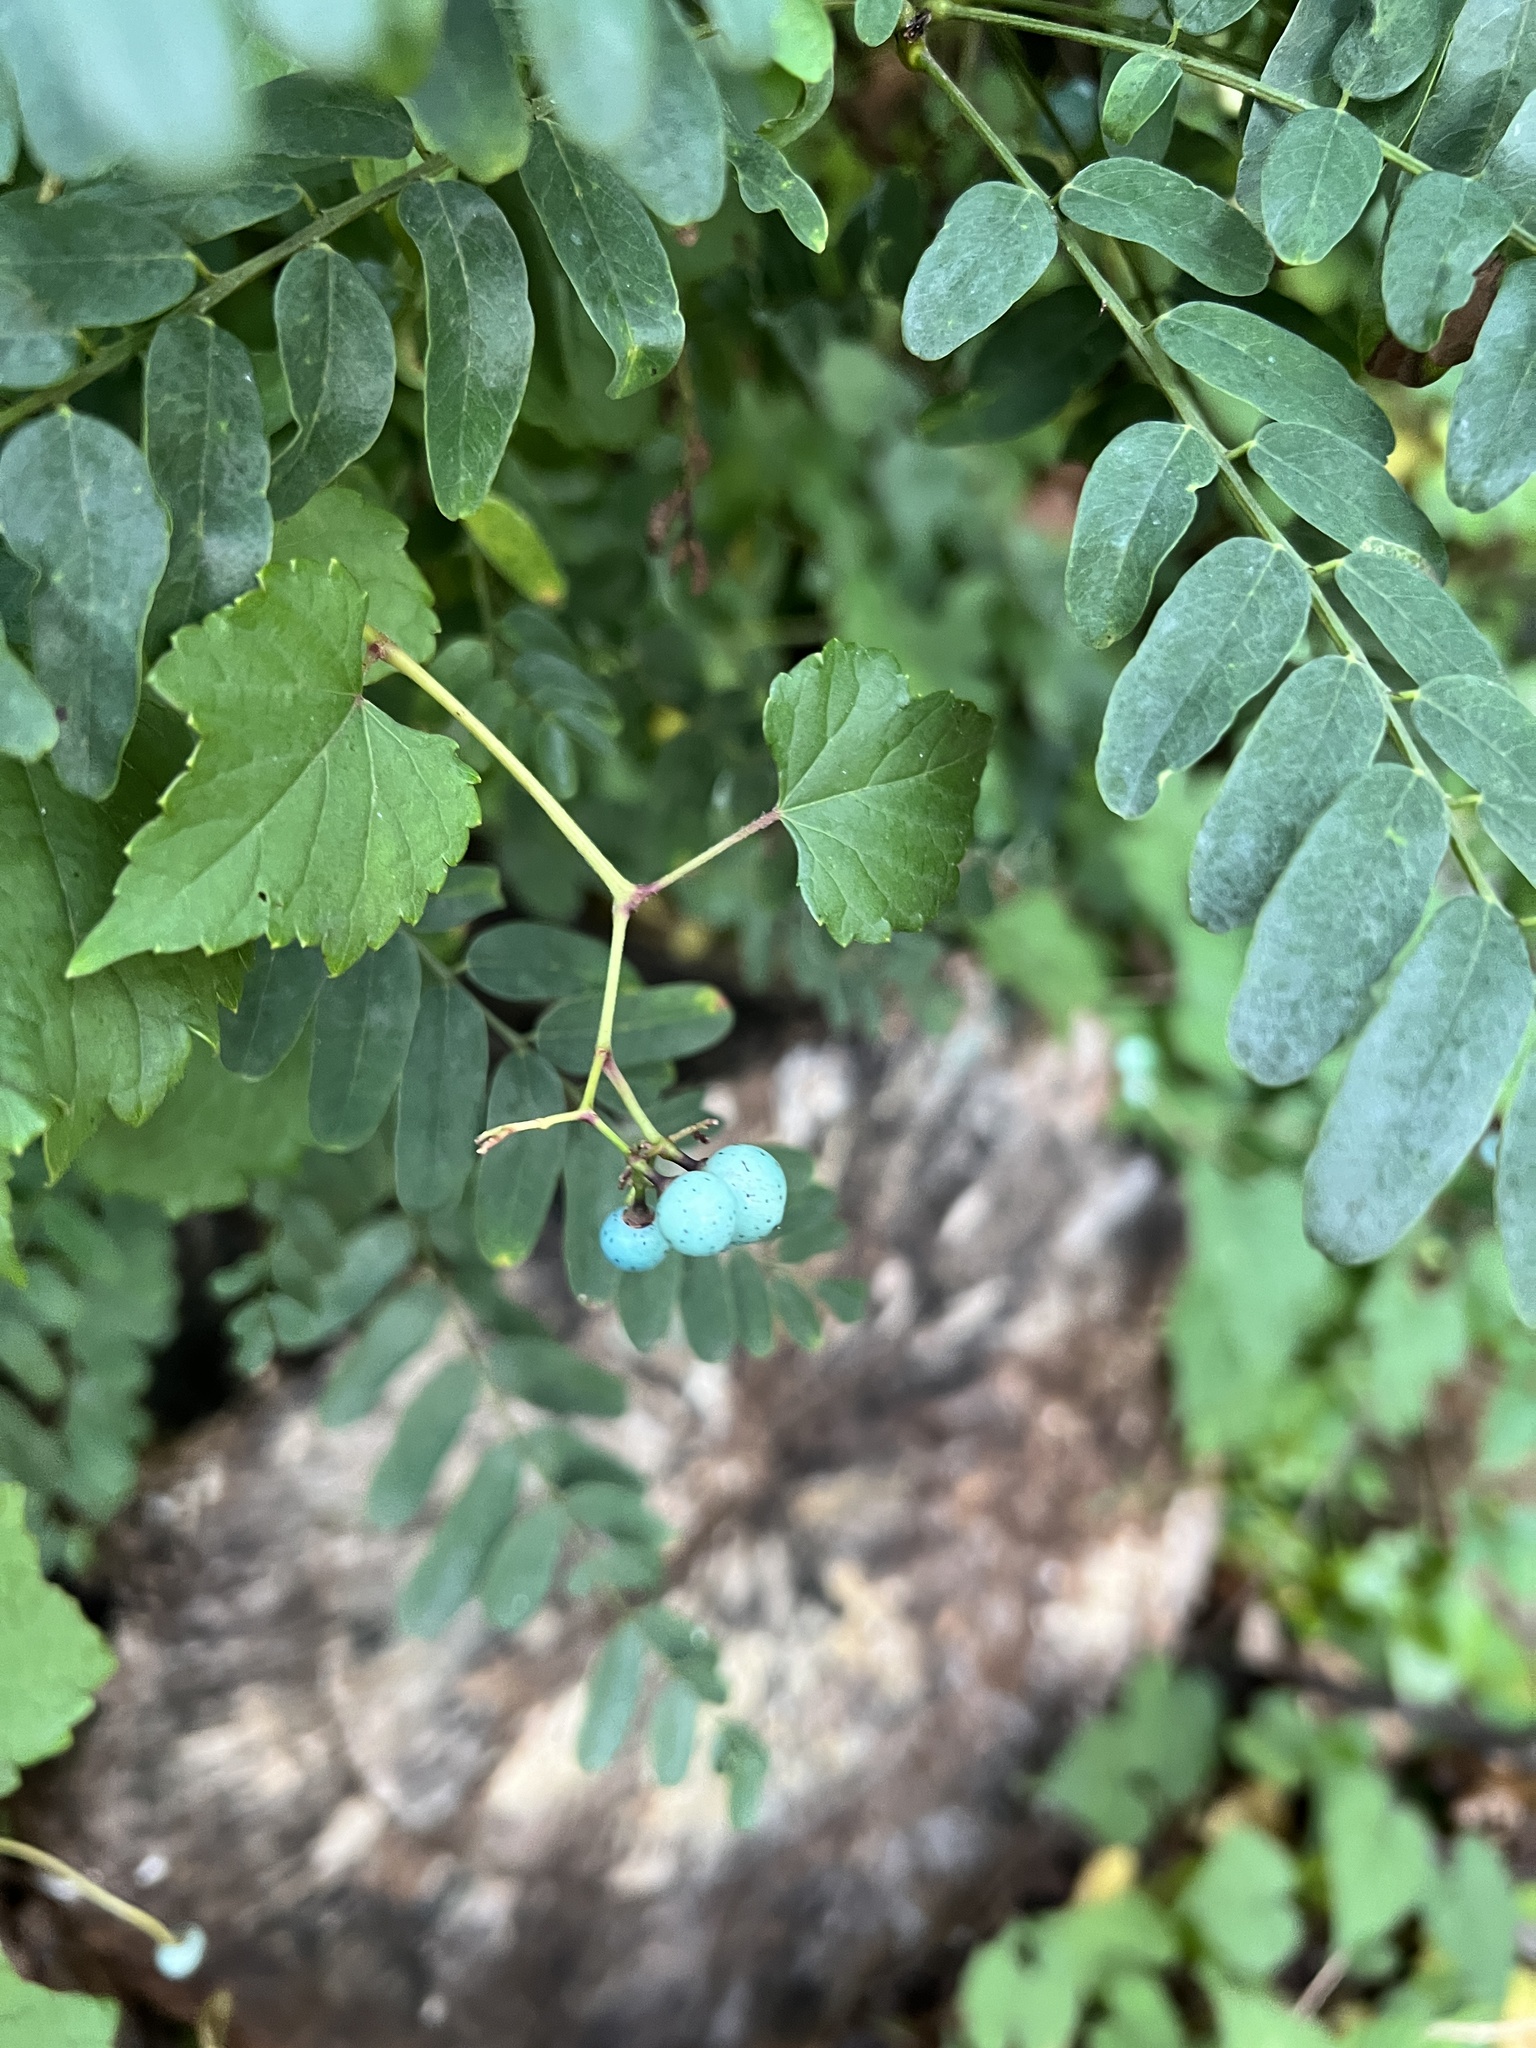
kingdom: Plantae
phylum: Tracheophyta
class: Magnoliopsida
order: Vitales
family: Vitaceae
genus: Ampelopsis
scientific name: Ampelopsis glandulosa
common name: Amur peppervine
